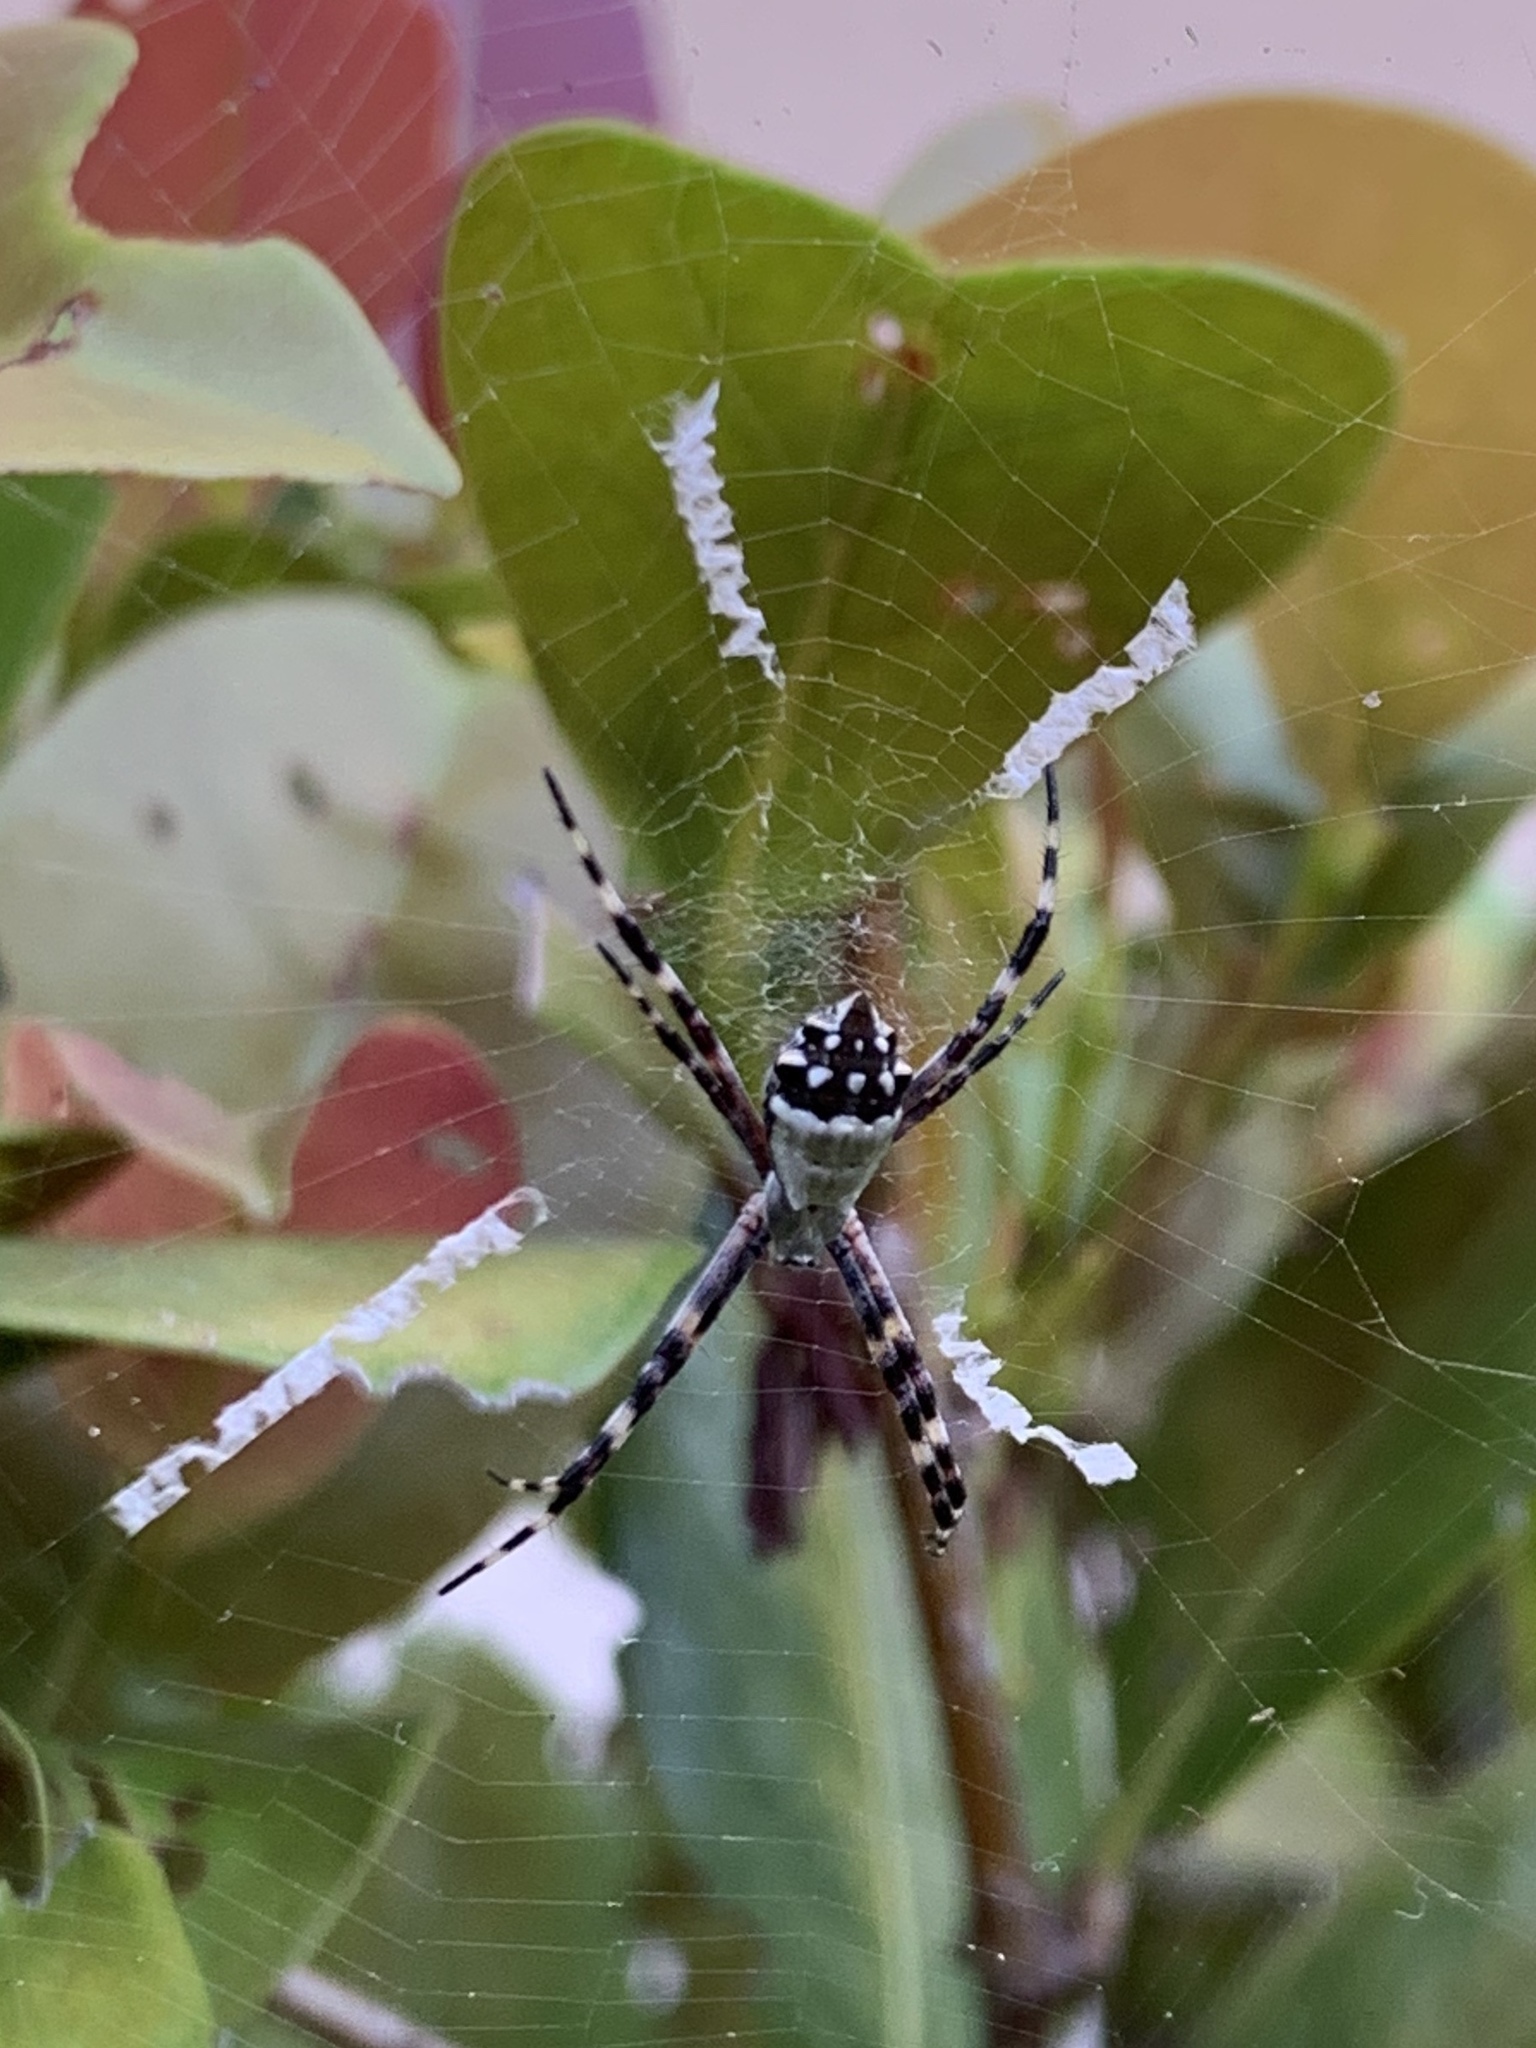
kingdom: Animalia
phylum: Arthropoda
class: Arachnida
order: Araneae
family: Araneidae
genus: Argiope
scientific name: Argiope argentata
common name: Orb weavers
